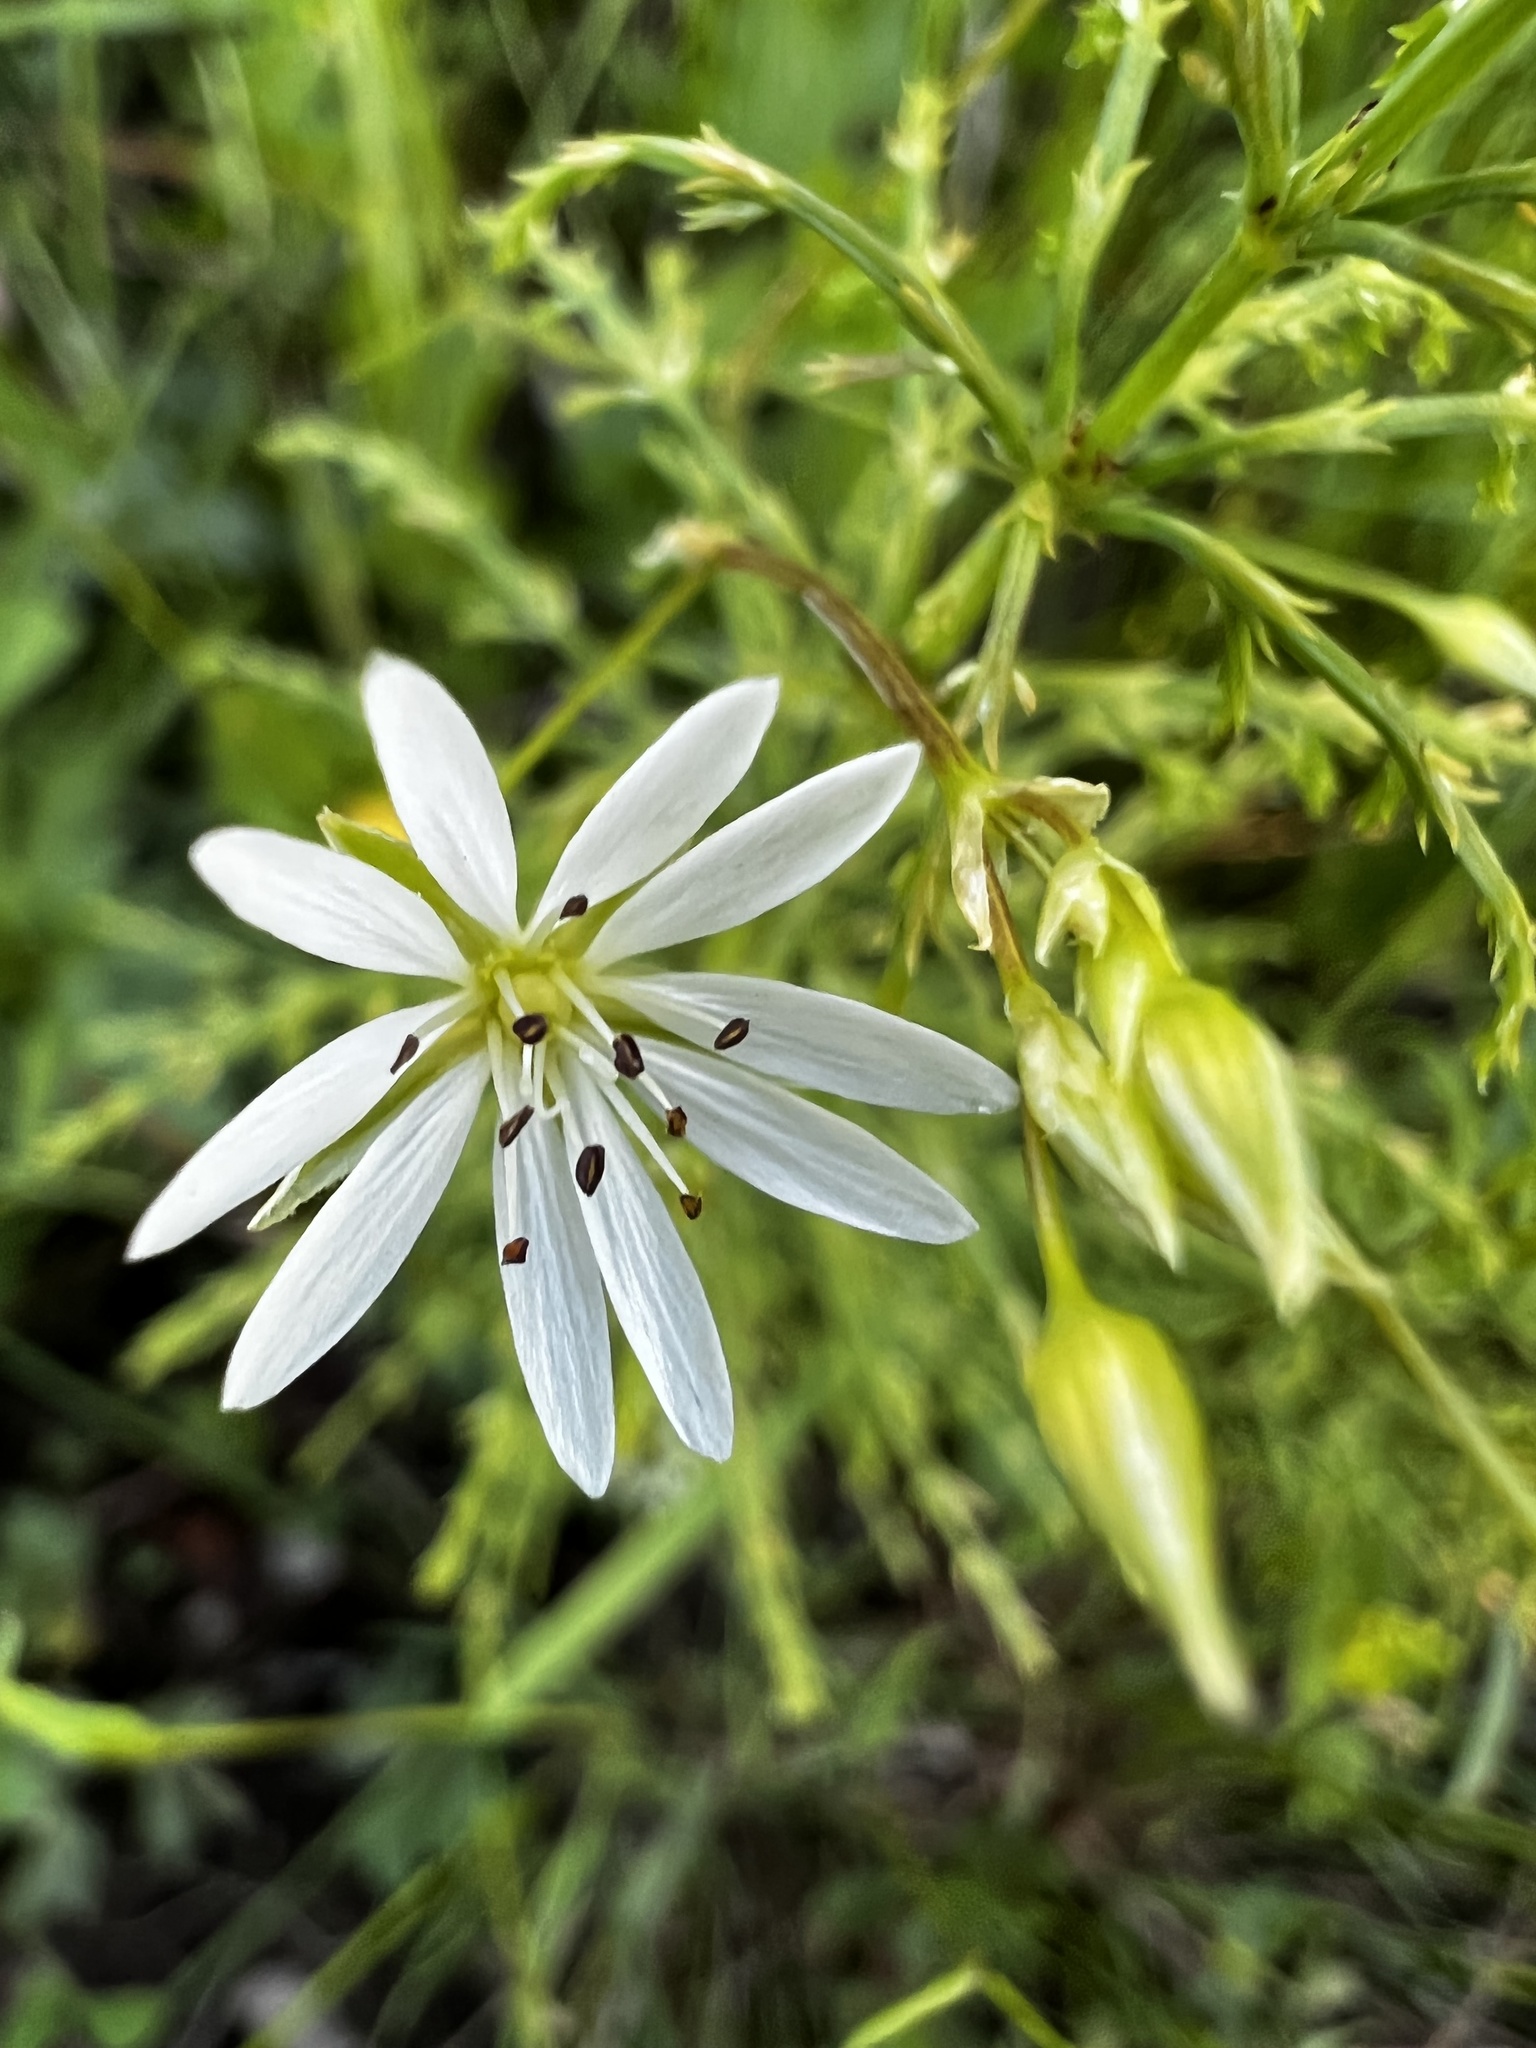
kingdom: Plantae
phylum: Tracheophyta
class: Magnoliopsida
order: Caryophyllales
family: Caryophyllaceae
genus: Stellaria
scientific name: Stellaria graminea
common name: Grass-like starwort
